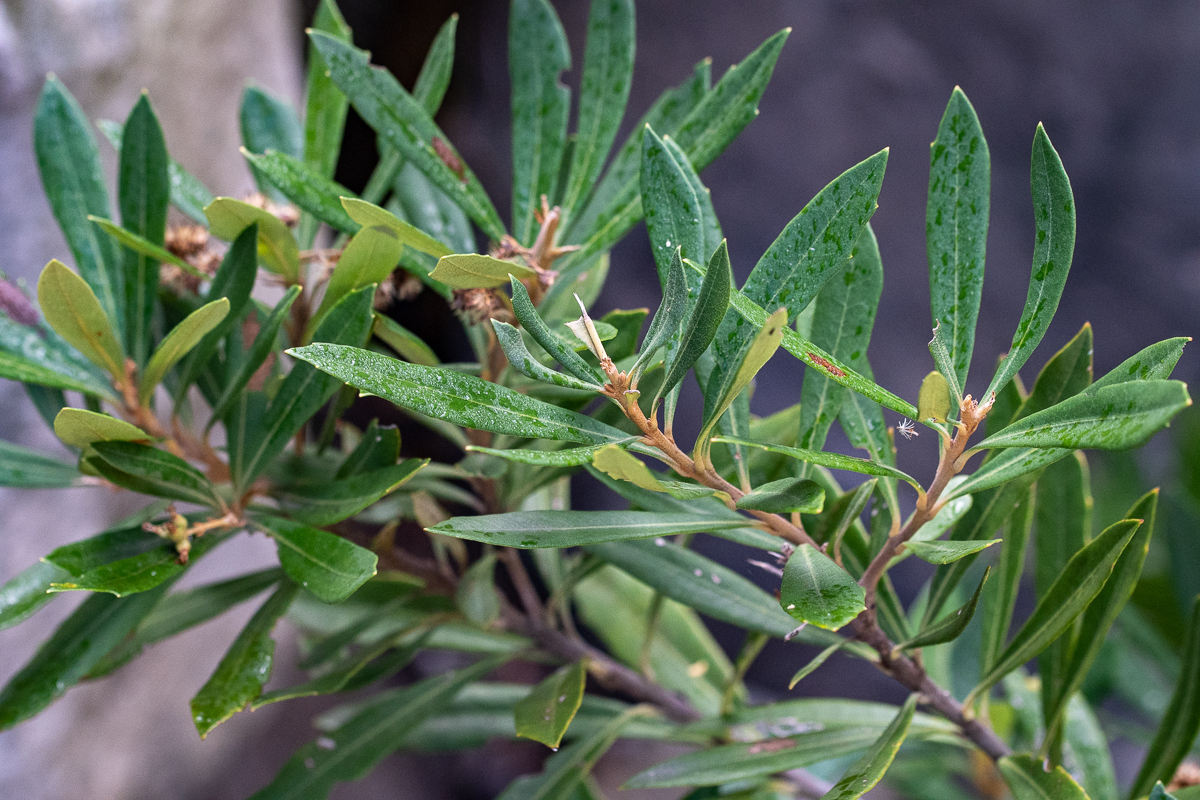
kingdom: Plantae
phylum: Tracheophyta
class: Magnoliopsida
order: Asterales
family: Asteraceae
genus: Brachylaena
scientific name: Brachylaena neriifolia
